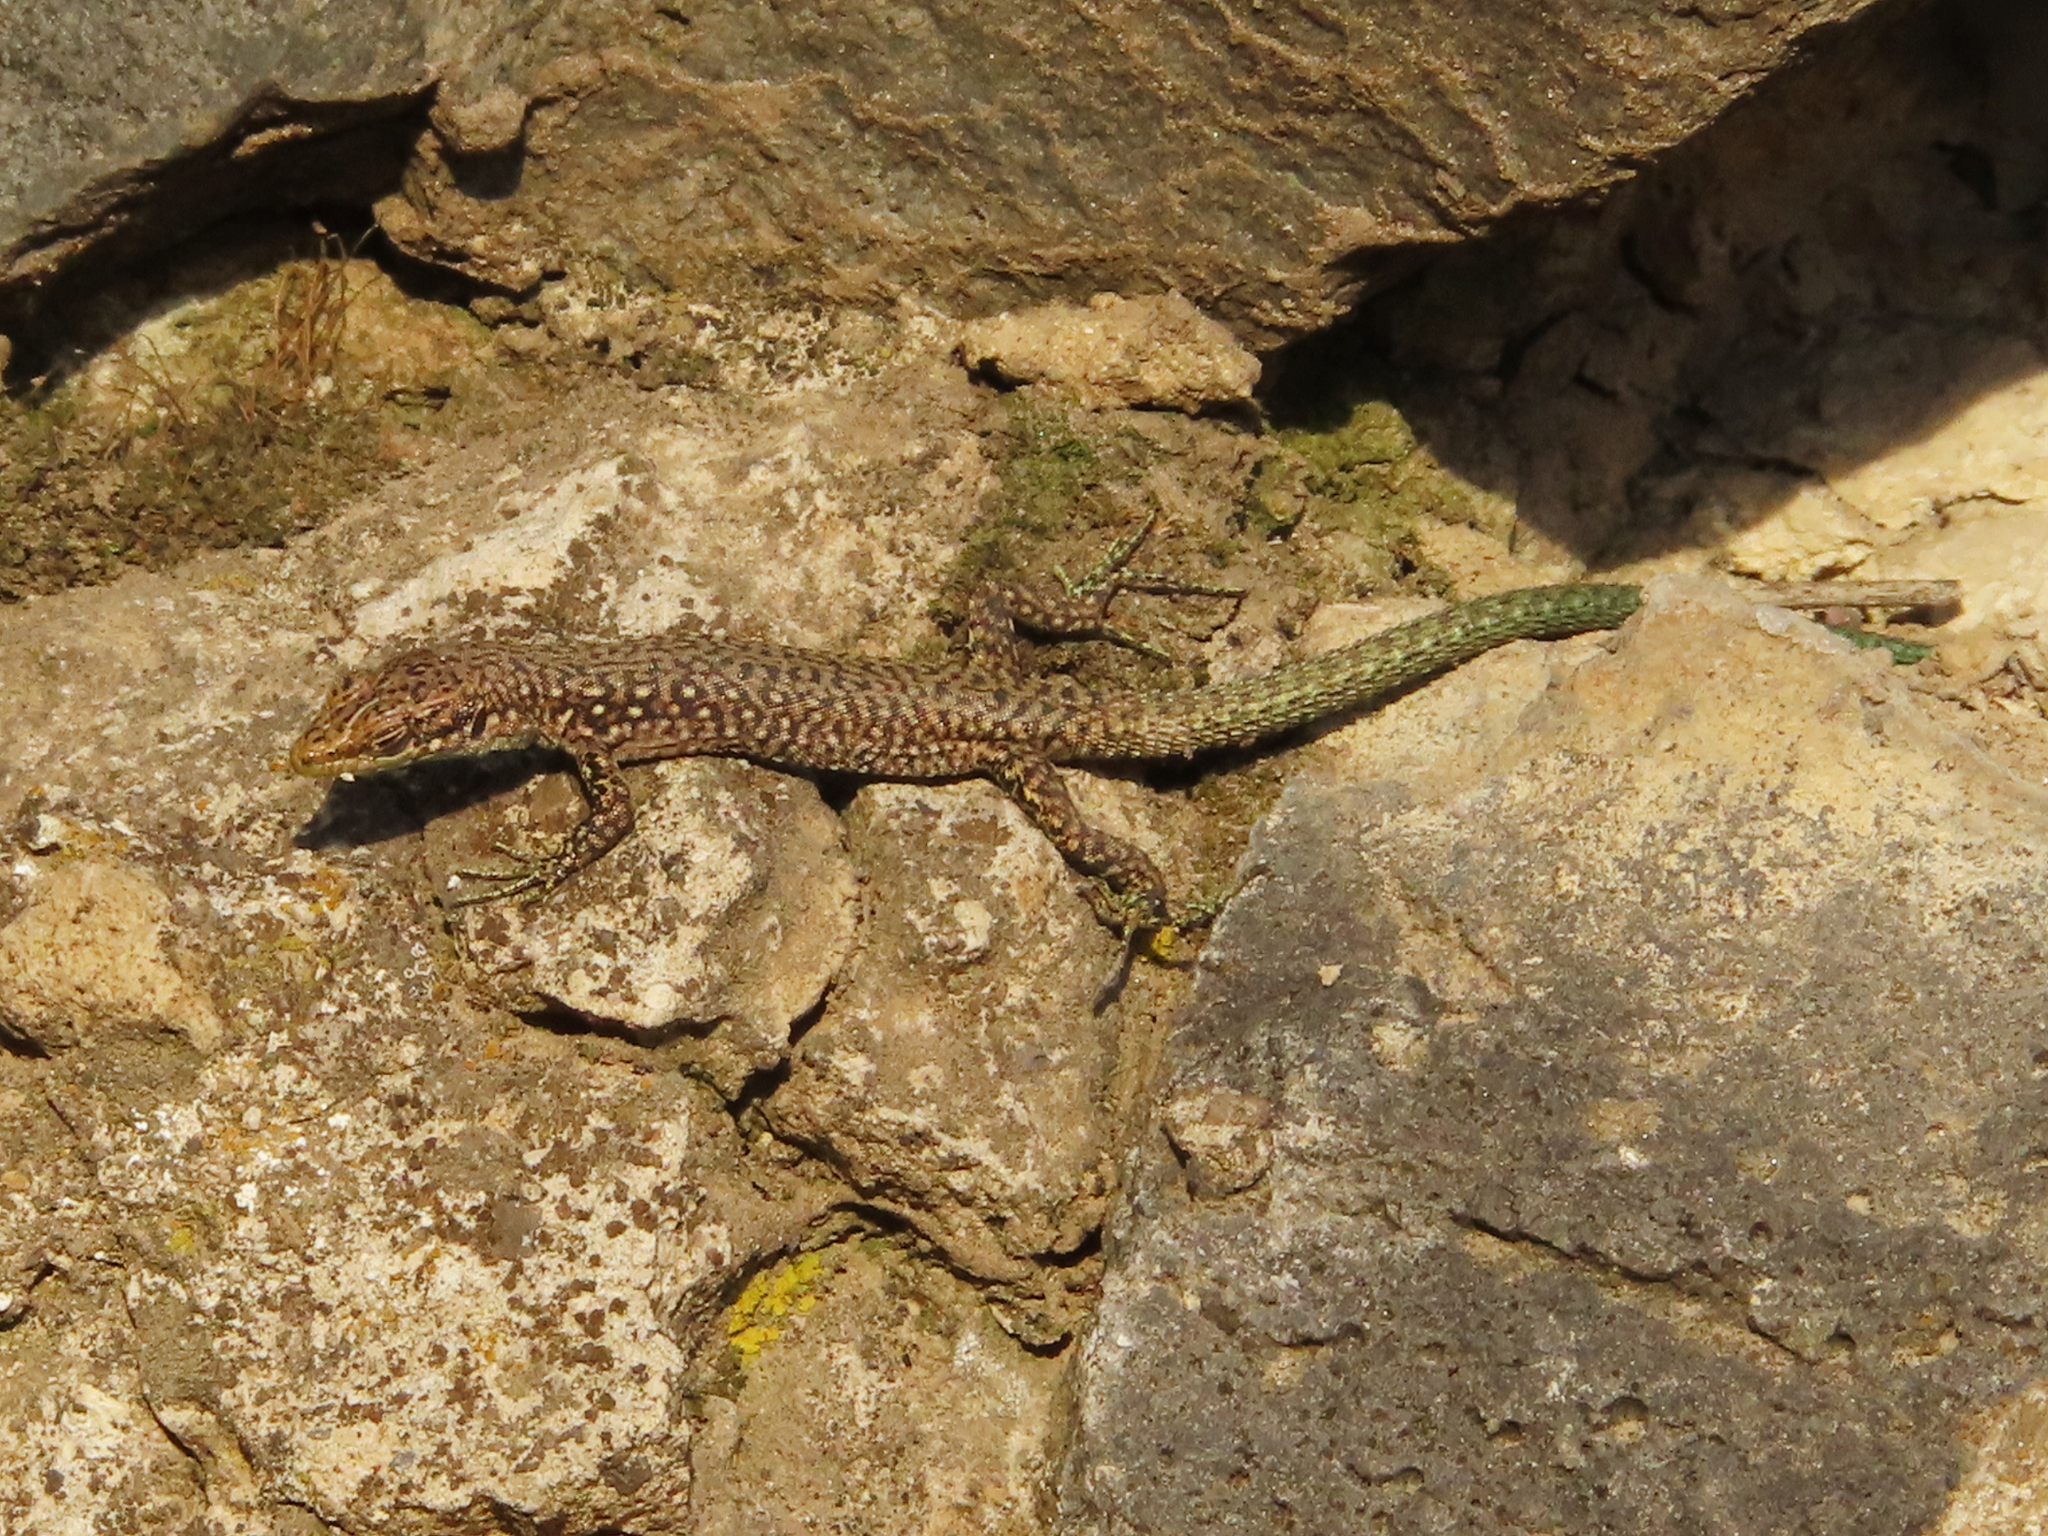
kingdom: Animalia
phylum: Chordata
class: Squamata
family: Lacertidae
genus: Darevskia
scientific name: Darevskia
